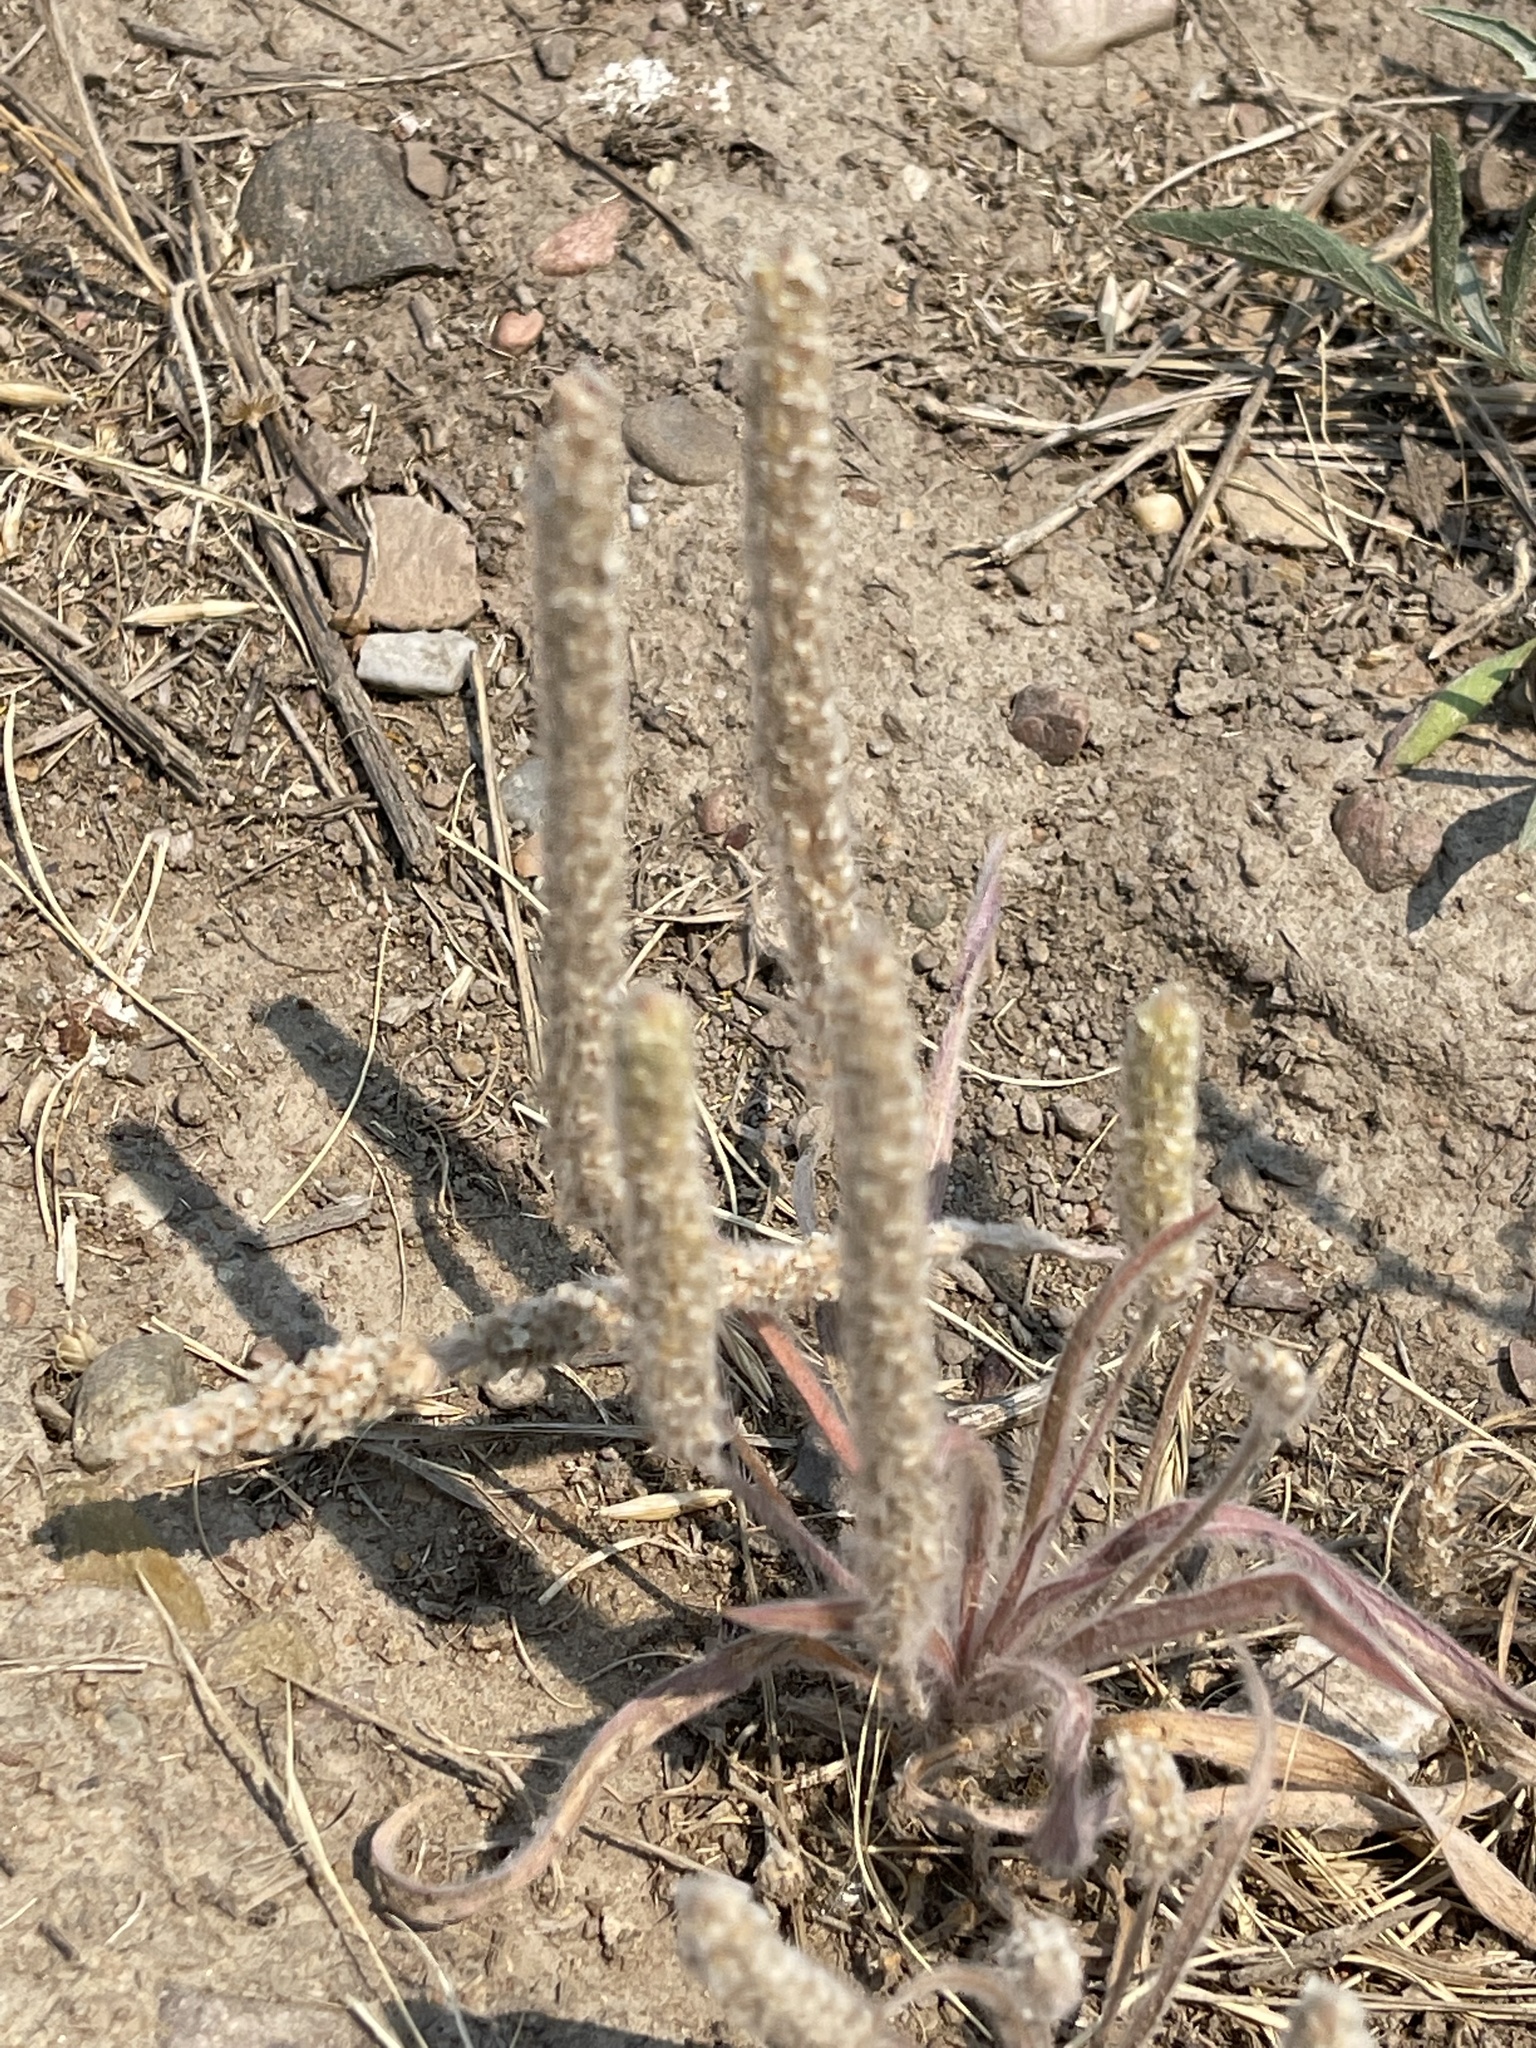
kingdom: Plantae
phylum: Tracheophyta
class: Magnoliopsida
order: Lamiales
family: Plantaginaceae
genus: Plantago
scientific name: Plantago patagonica
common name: Patagonia indian-wheat
